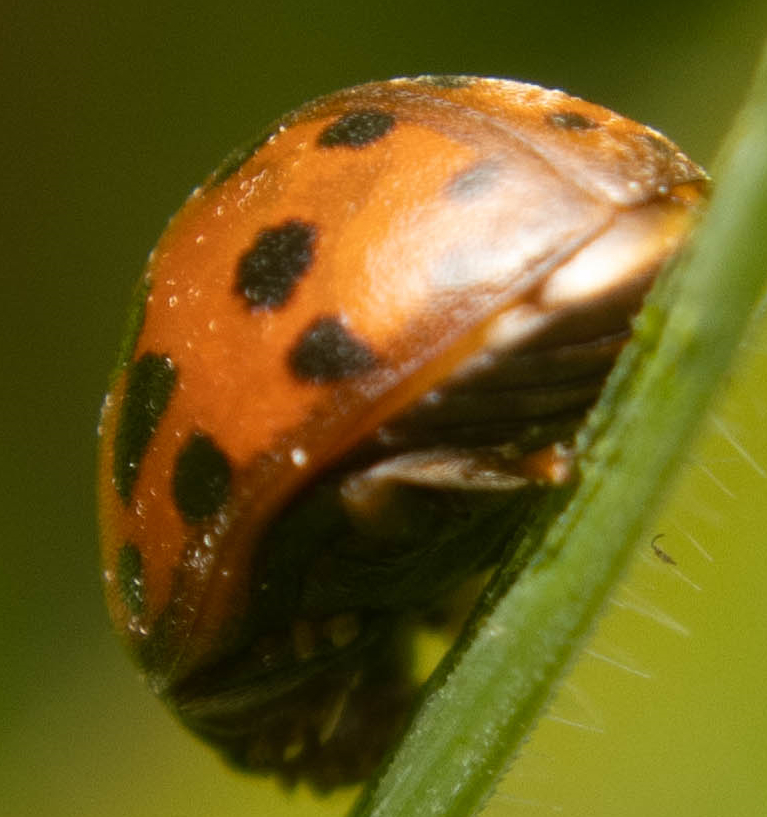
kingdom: Animalia
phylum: Arthropoda
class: Insecta
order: Coleoptera
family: Coccinellidae
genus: Subcoccinella
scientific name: Subcoccinella vigintiquatuorpunctata
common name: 24-spot ladybird
